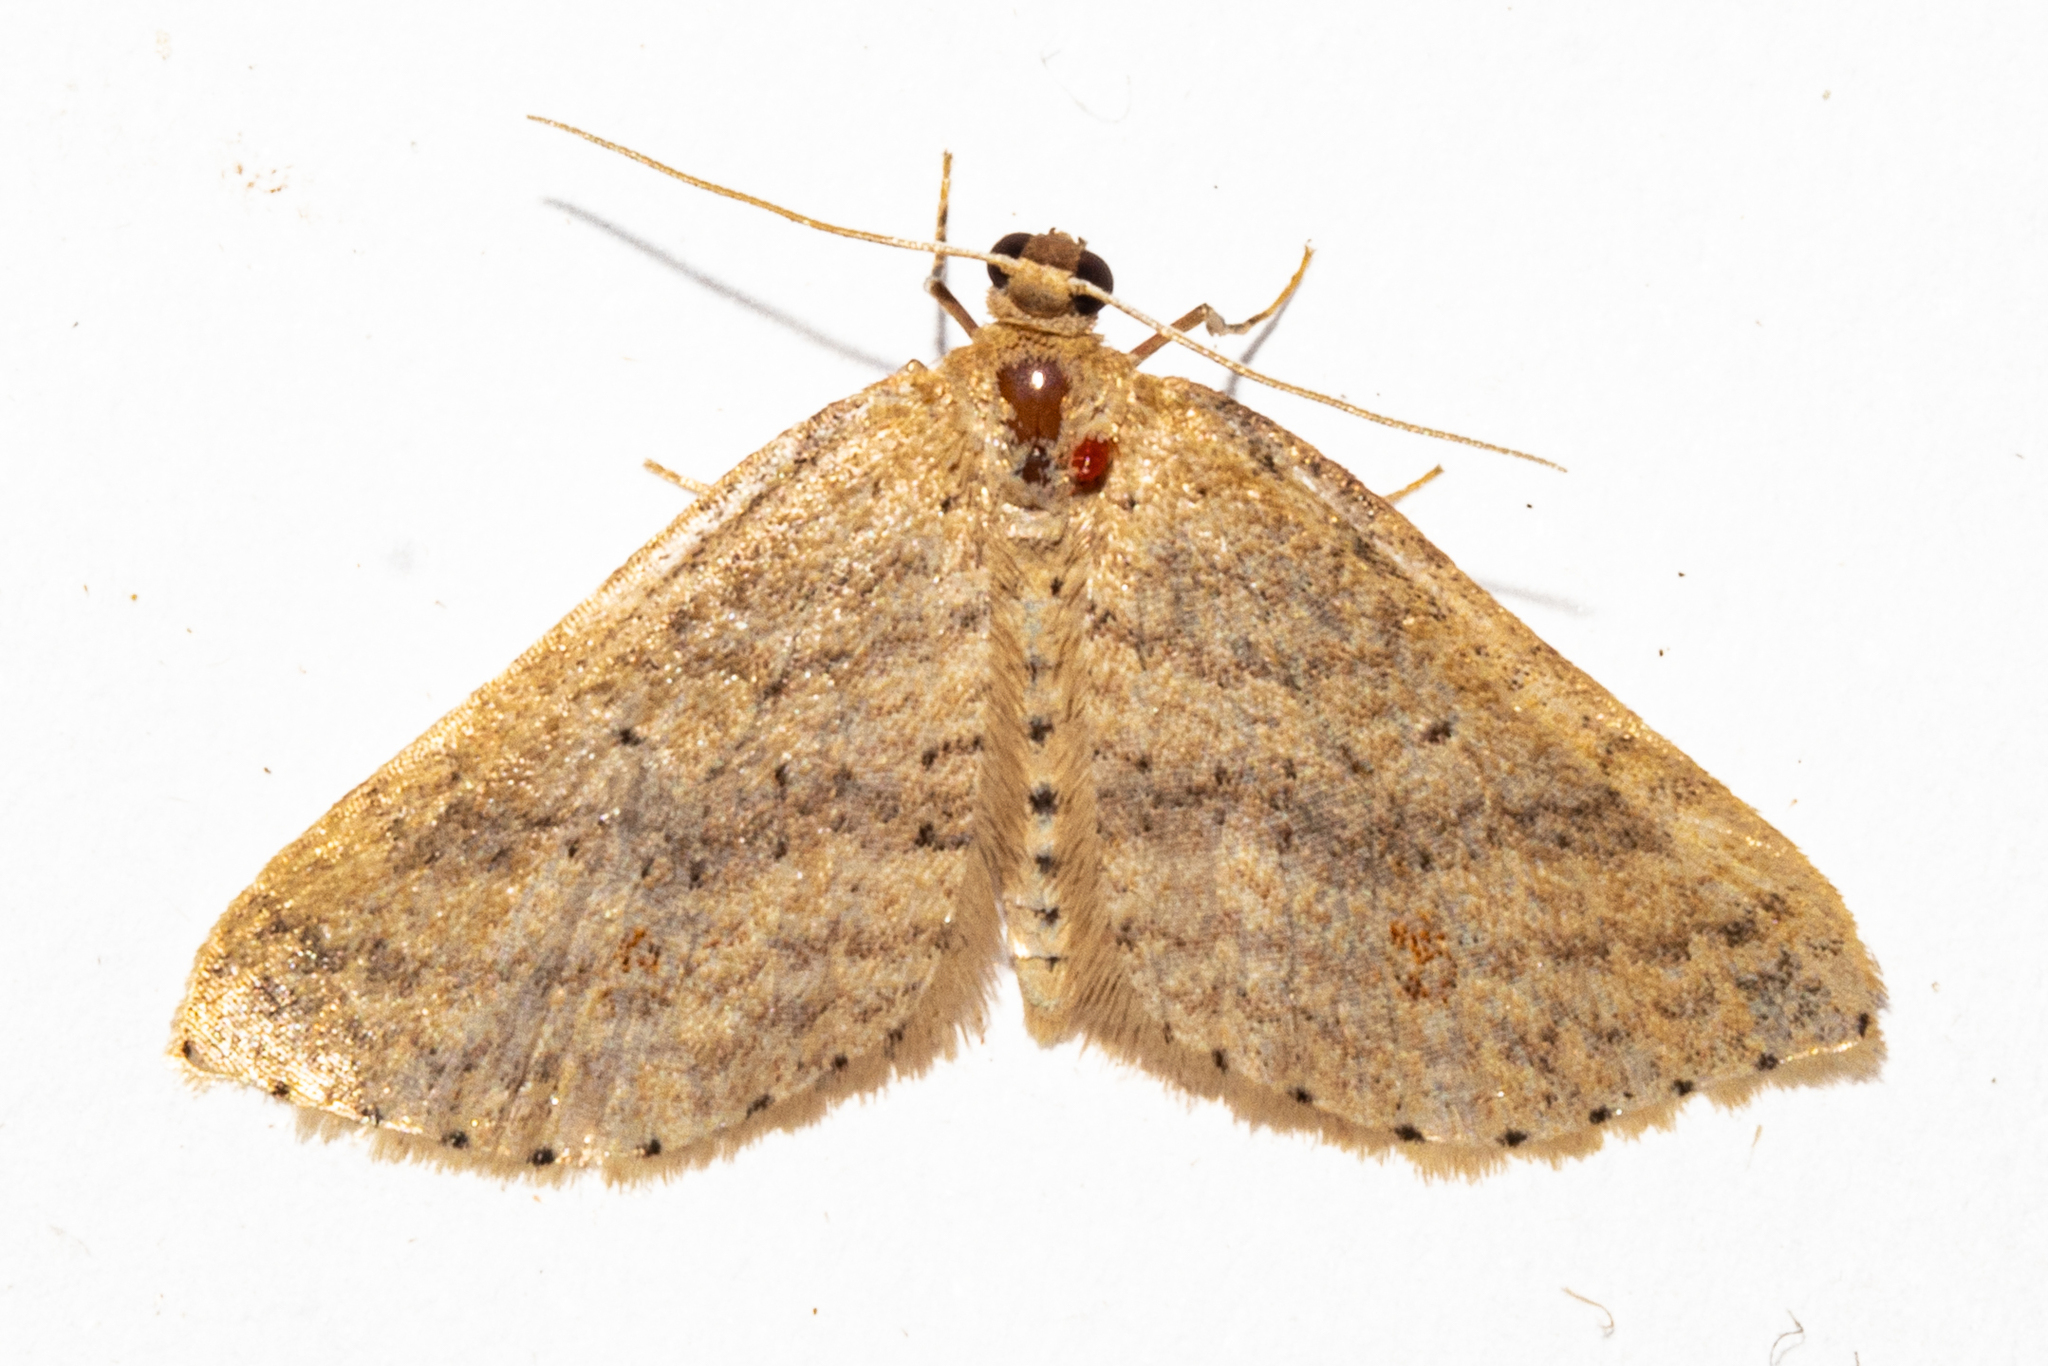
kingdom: Animalia
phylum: Arthropoda
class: Insecta
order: Lepidoptera
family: Geometridae
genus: Epicyme
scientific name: Epicyme rubropunctaria
